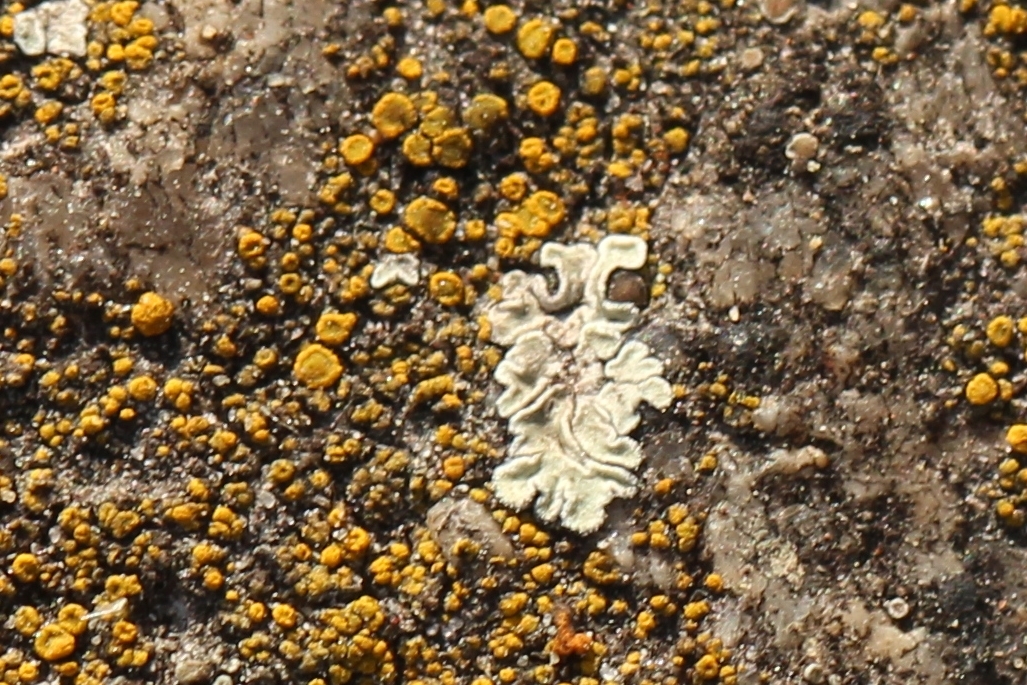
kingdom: Fungi
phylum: Ascomycota
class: Lecanoromycetes
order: Lecanorales
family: Lecanoraceae
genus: Protoparmeliopsis
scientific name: Protoparmeliopsis muralis
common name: Stonewall rim lichen
